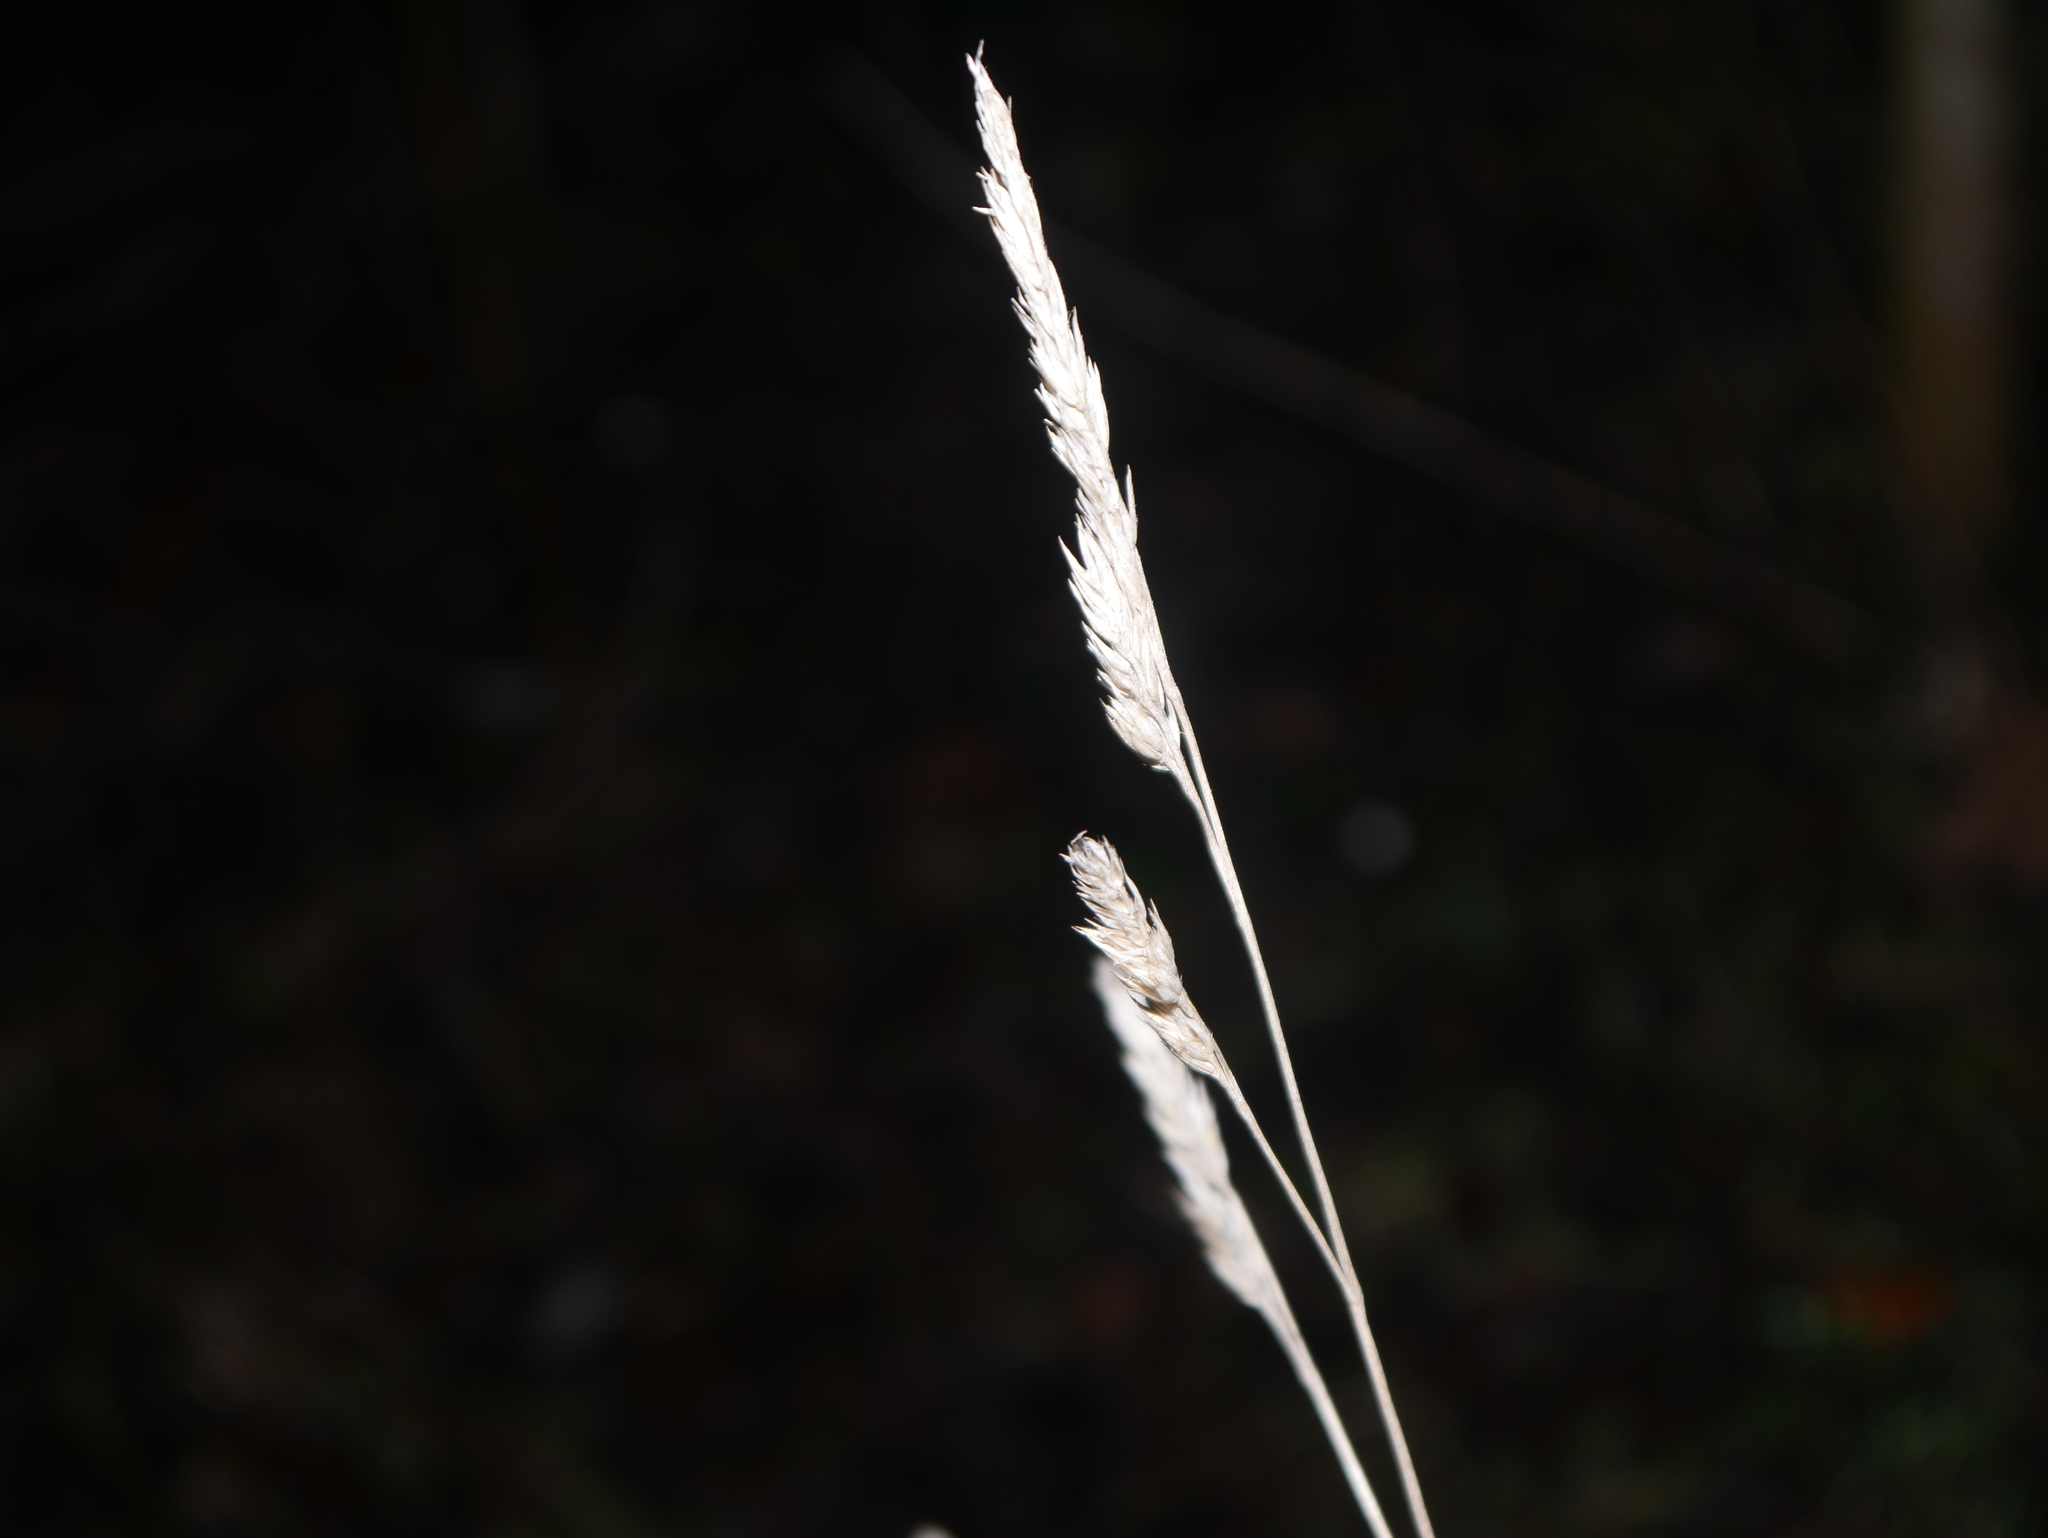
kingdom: Plantae
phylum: Tracheophyta
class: Liliopsida
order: Poales
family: Poaceae
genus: Dactylis
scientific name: Dactylis glomerata
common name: Orchardgrass
